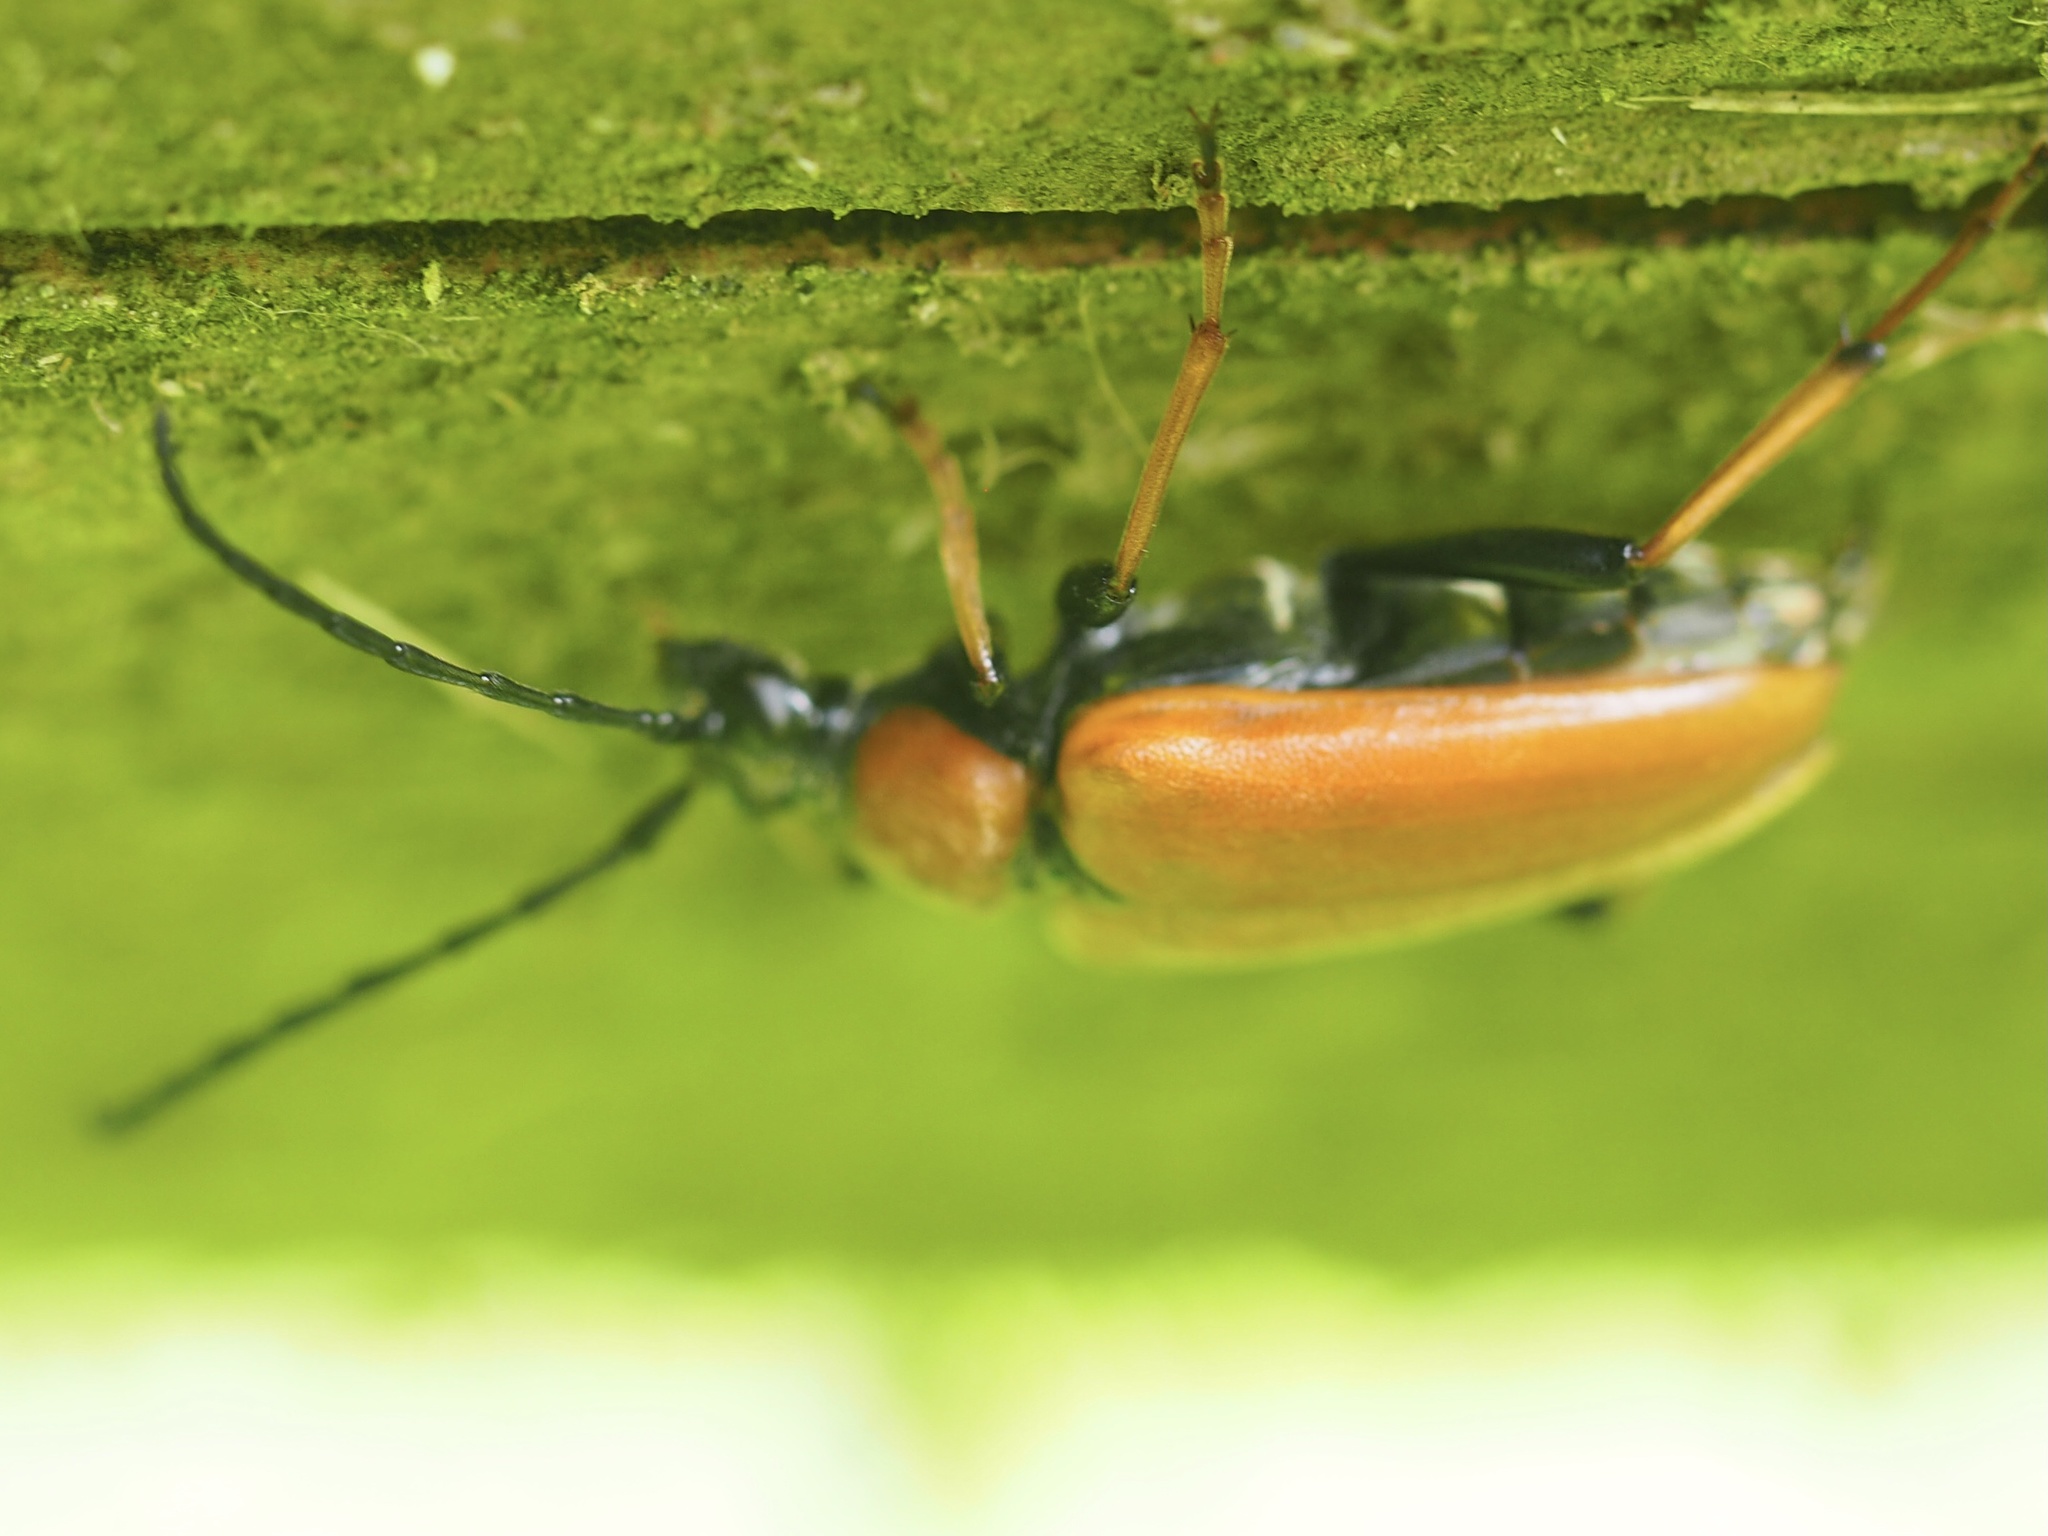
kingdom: Animalia
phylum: Arthropoda
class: Insecta
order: Coleoptera
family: Cerambycidae
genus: Stictoleptura
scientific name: Stictoleptura rubra
